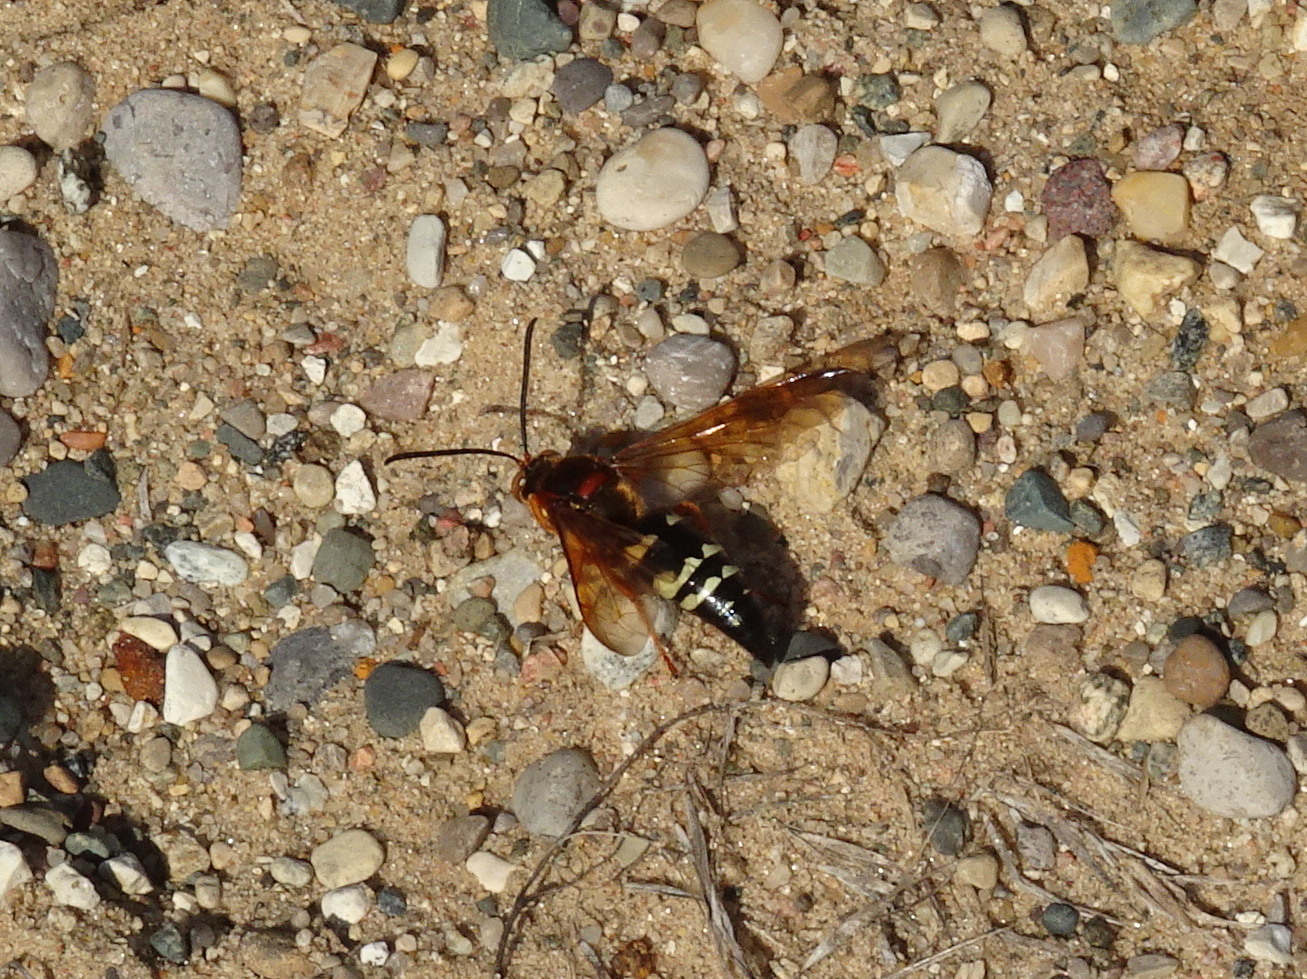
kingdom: Animalia
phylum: Arthropoda
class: Insecta
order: Hymenoptera
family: Crabronidae
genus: Sphecius
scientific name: Sphecius speciosus
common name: Cicada killer
